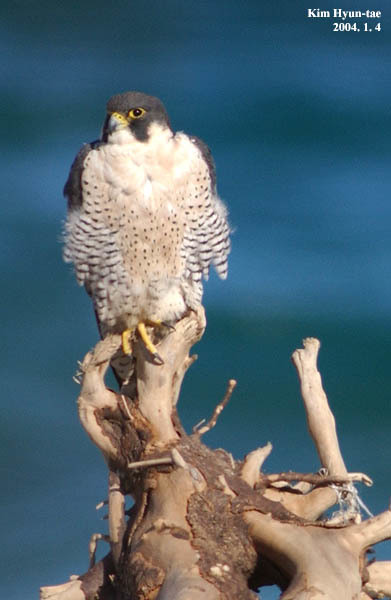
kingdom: Animalia
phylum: Chordata
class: Aves
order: Falconiformes
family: Falconidae
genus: Falco
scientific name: Falco peregrinus
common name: Peregrine falcon
